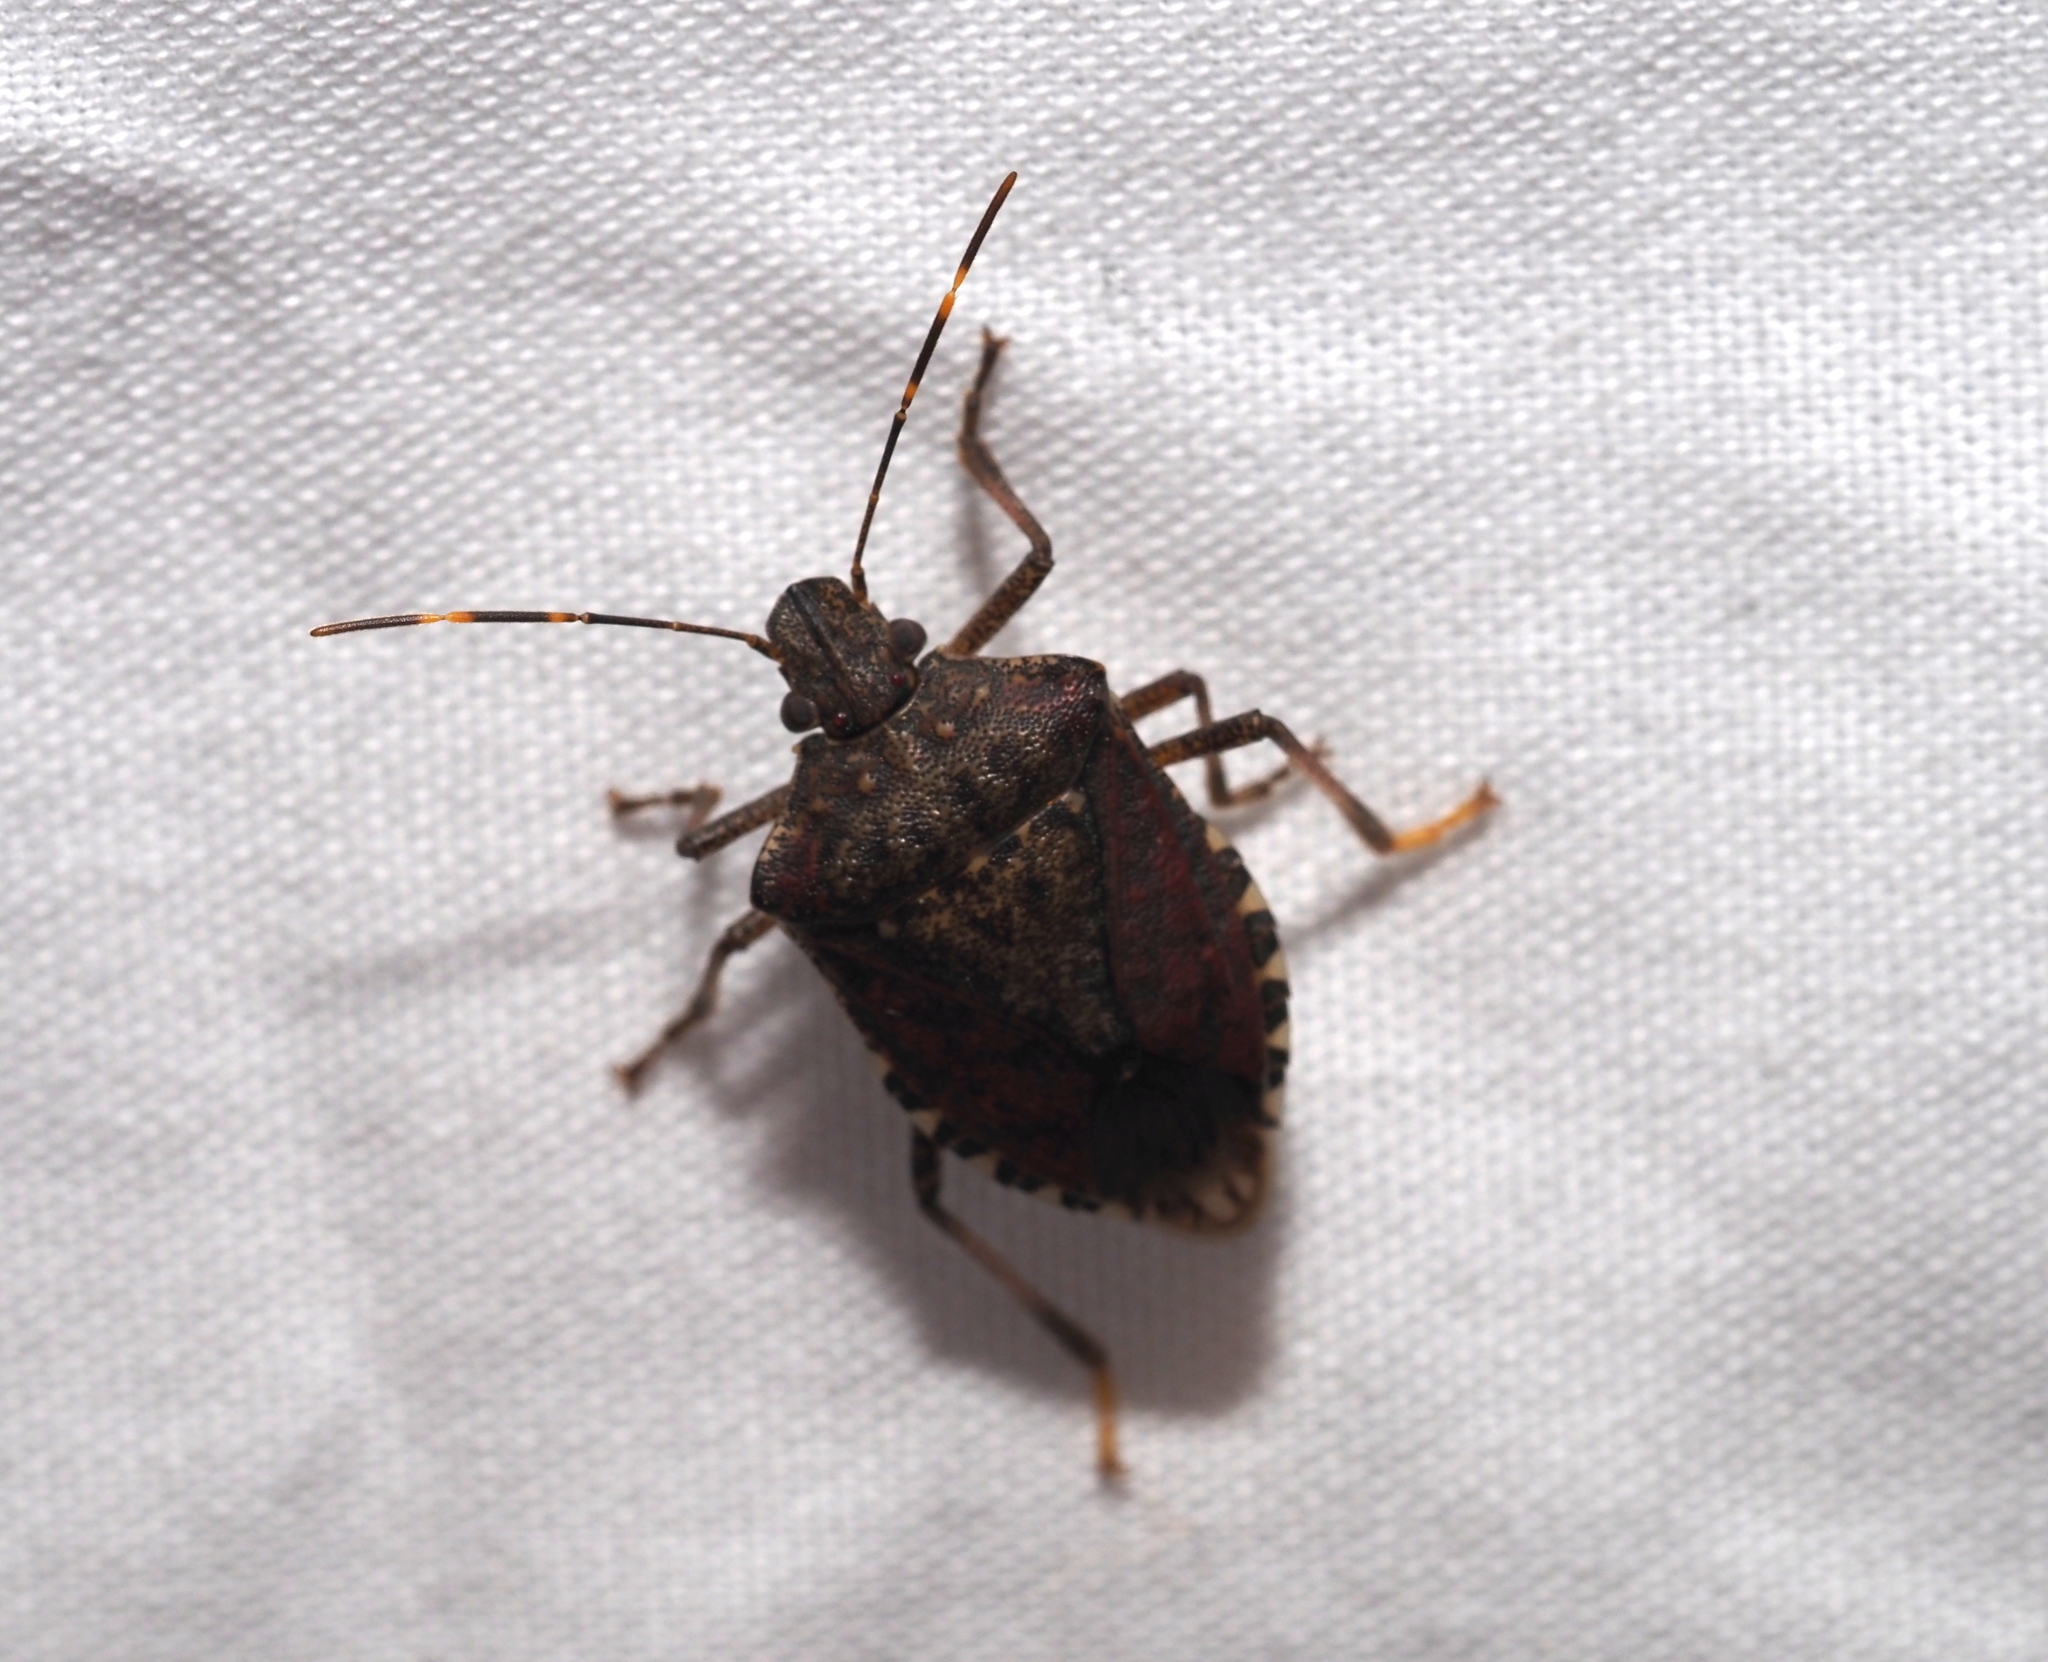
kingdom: Animalia
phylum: Arthropoda
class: Insecta
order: Hemiptera
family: Pentatomidae
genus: Halyomorpha
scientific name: Halyomorpha halys
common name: Brown marmorated stink bug
